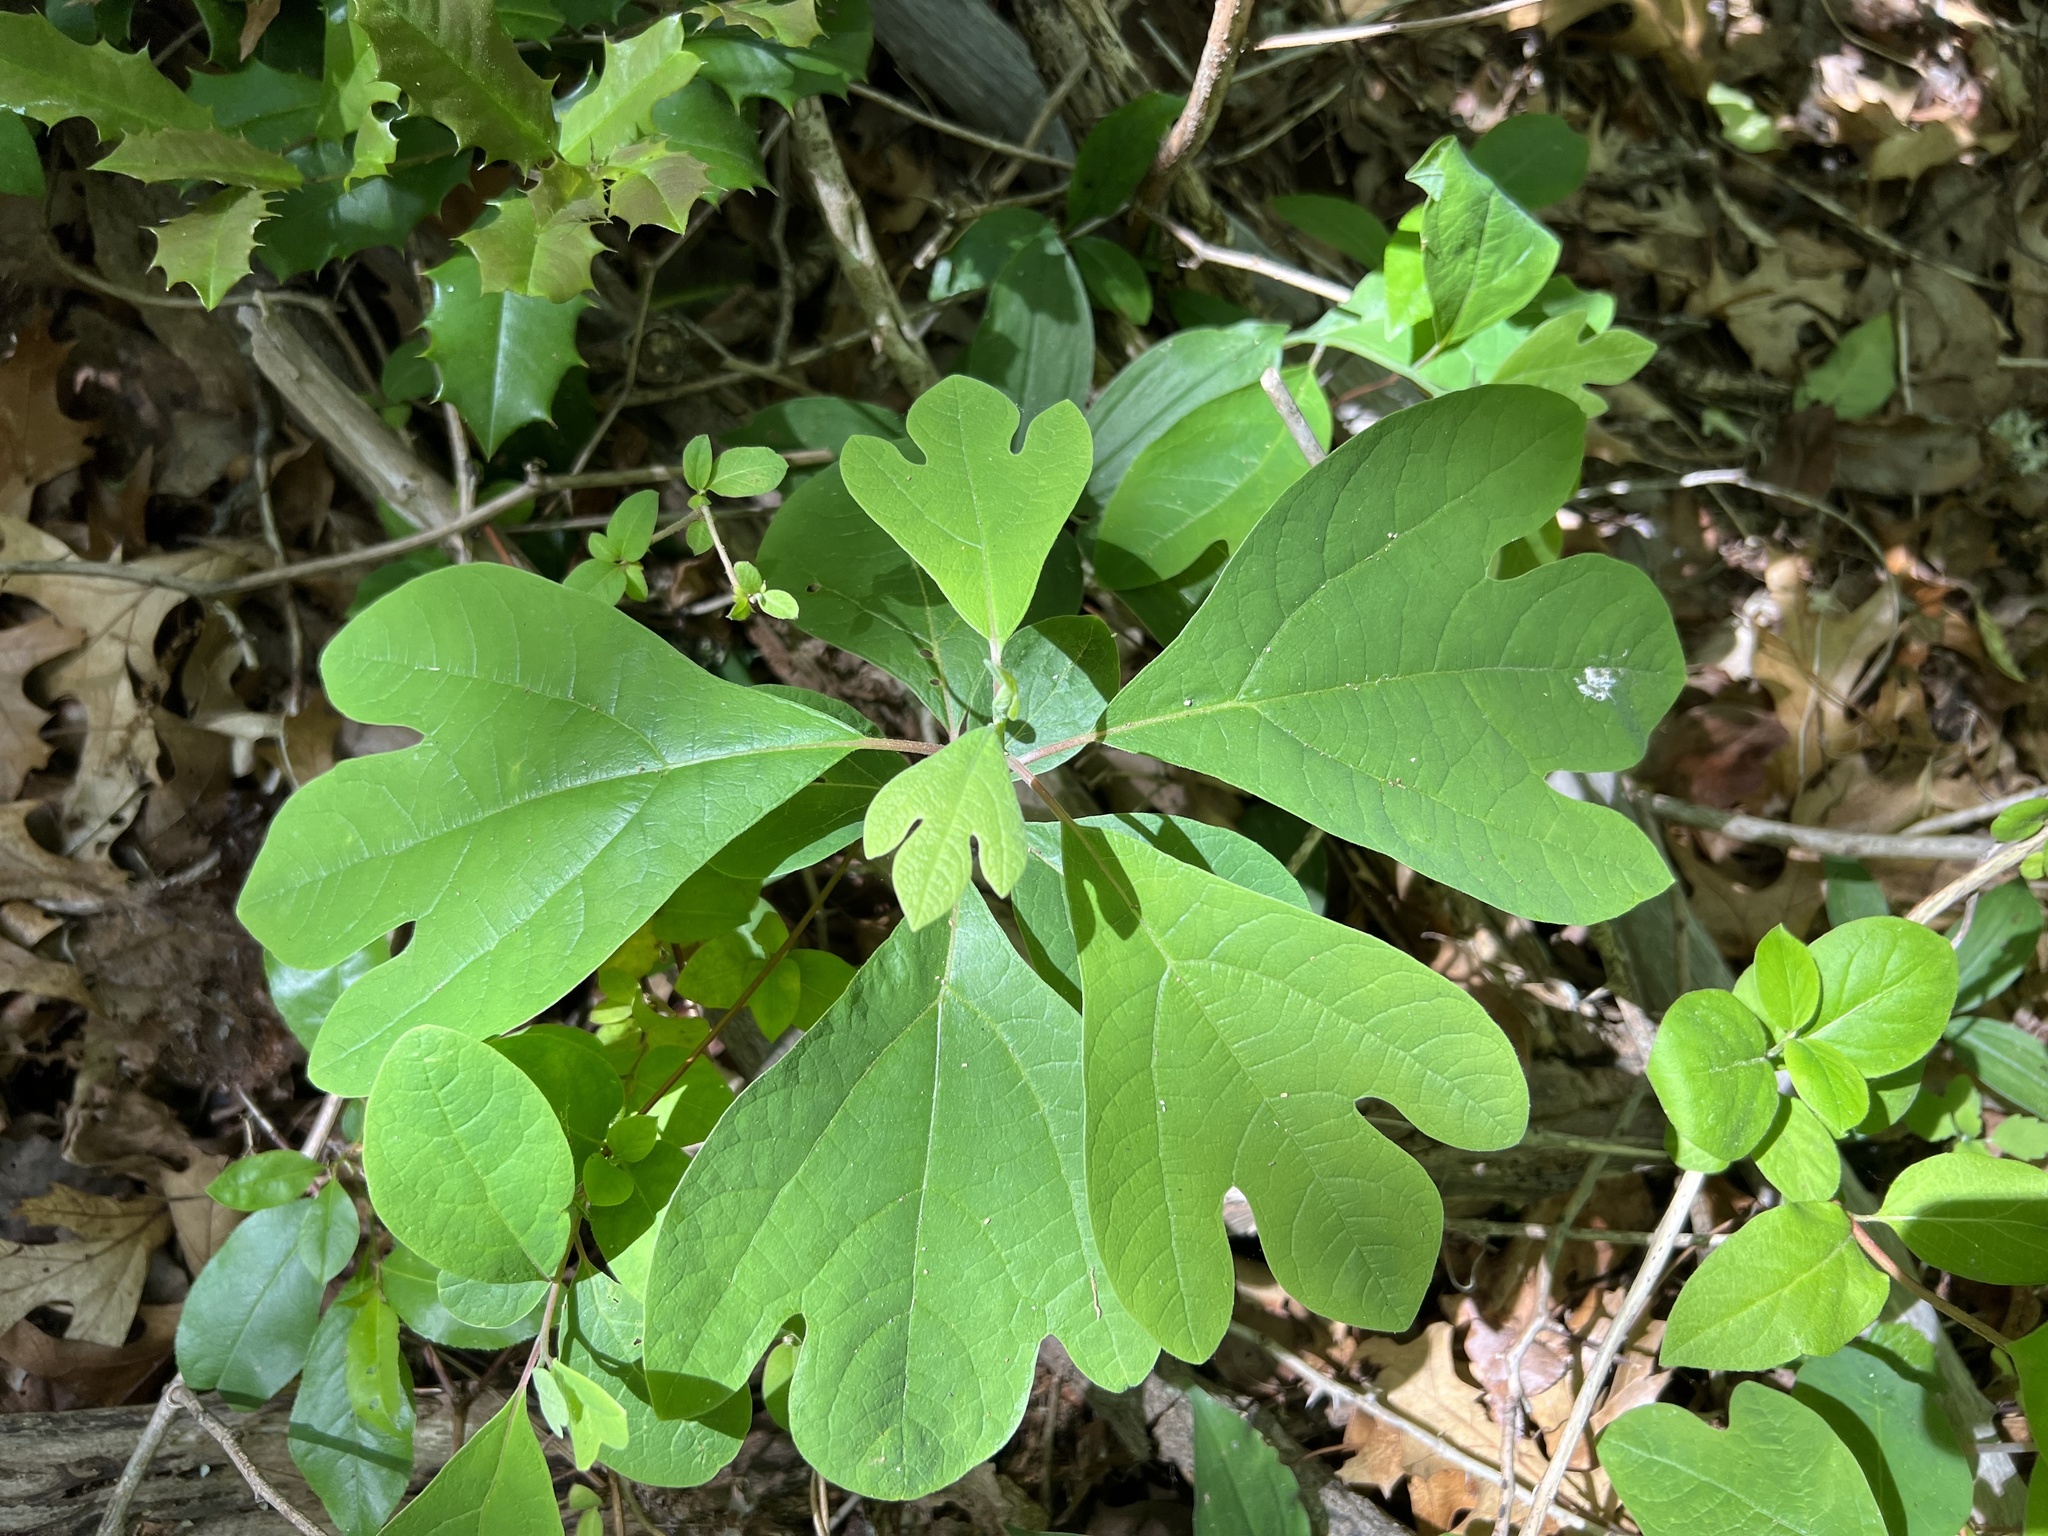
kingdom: Plantae
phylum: Tracheophyta
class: Magnoliopsida
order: Laurales
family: Lauraceae
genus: Sassafras
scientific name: Sassafras albidum
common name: Sassafras
